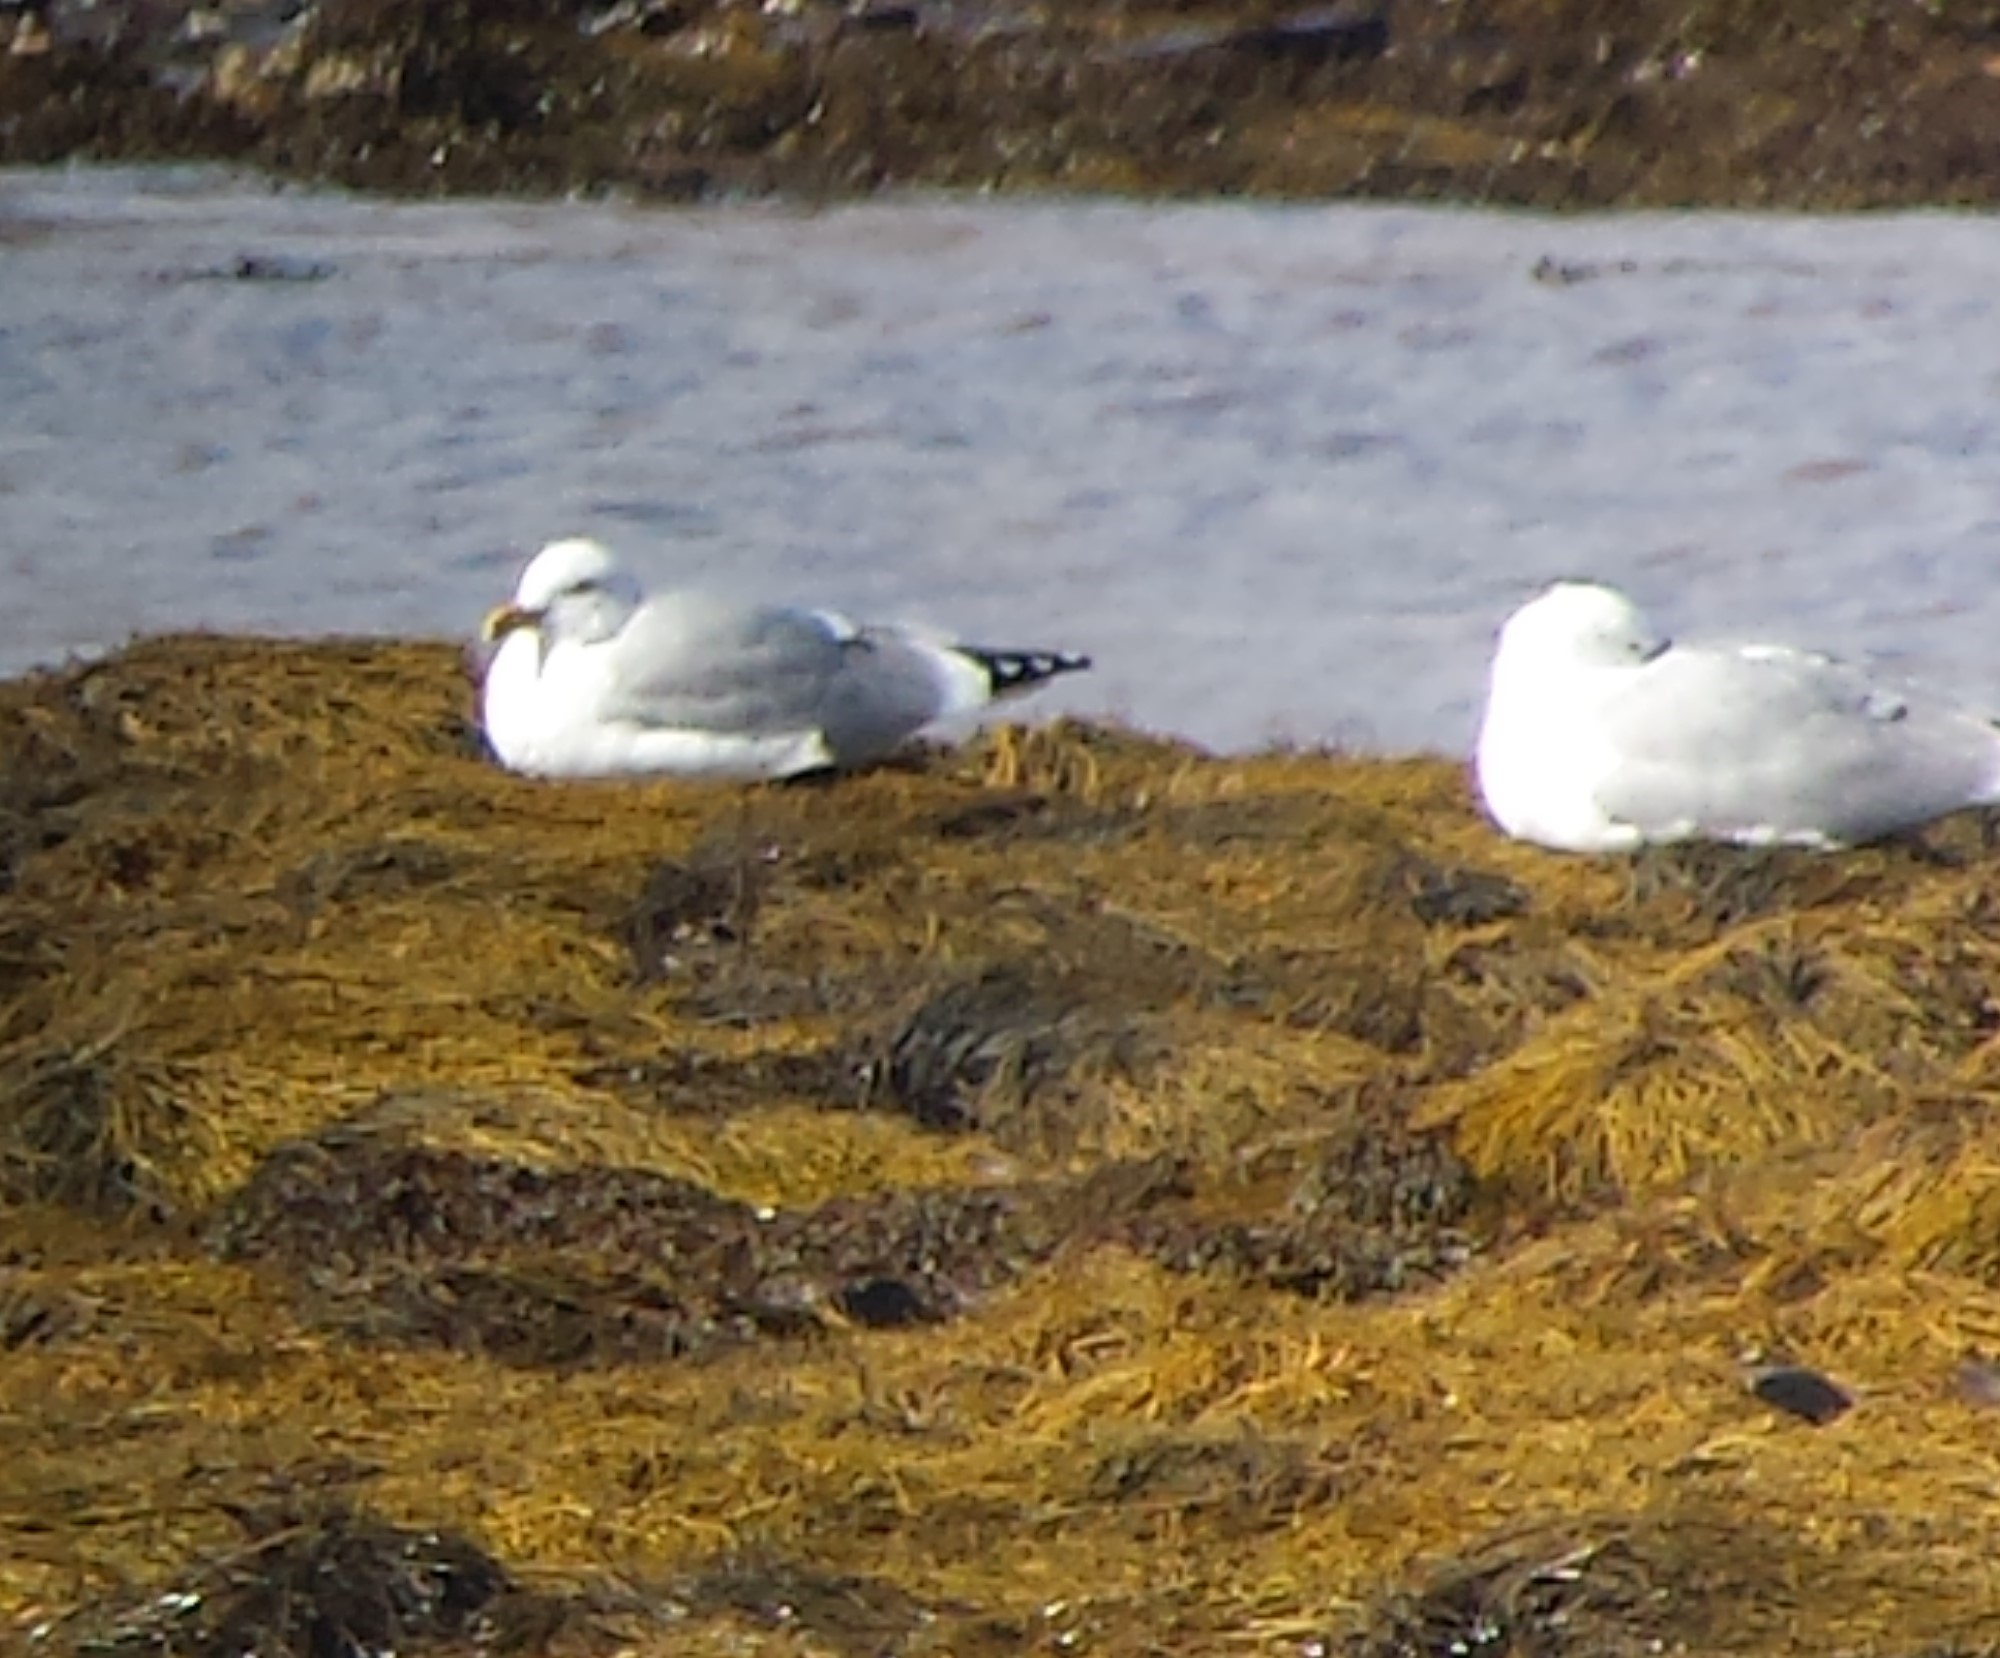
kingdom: Animalia
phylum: Chordata
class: Aves
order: Charadriiformes
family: Laridae
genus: Larus
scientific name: Larus argentatus
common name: Herring gull
